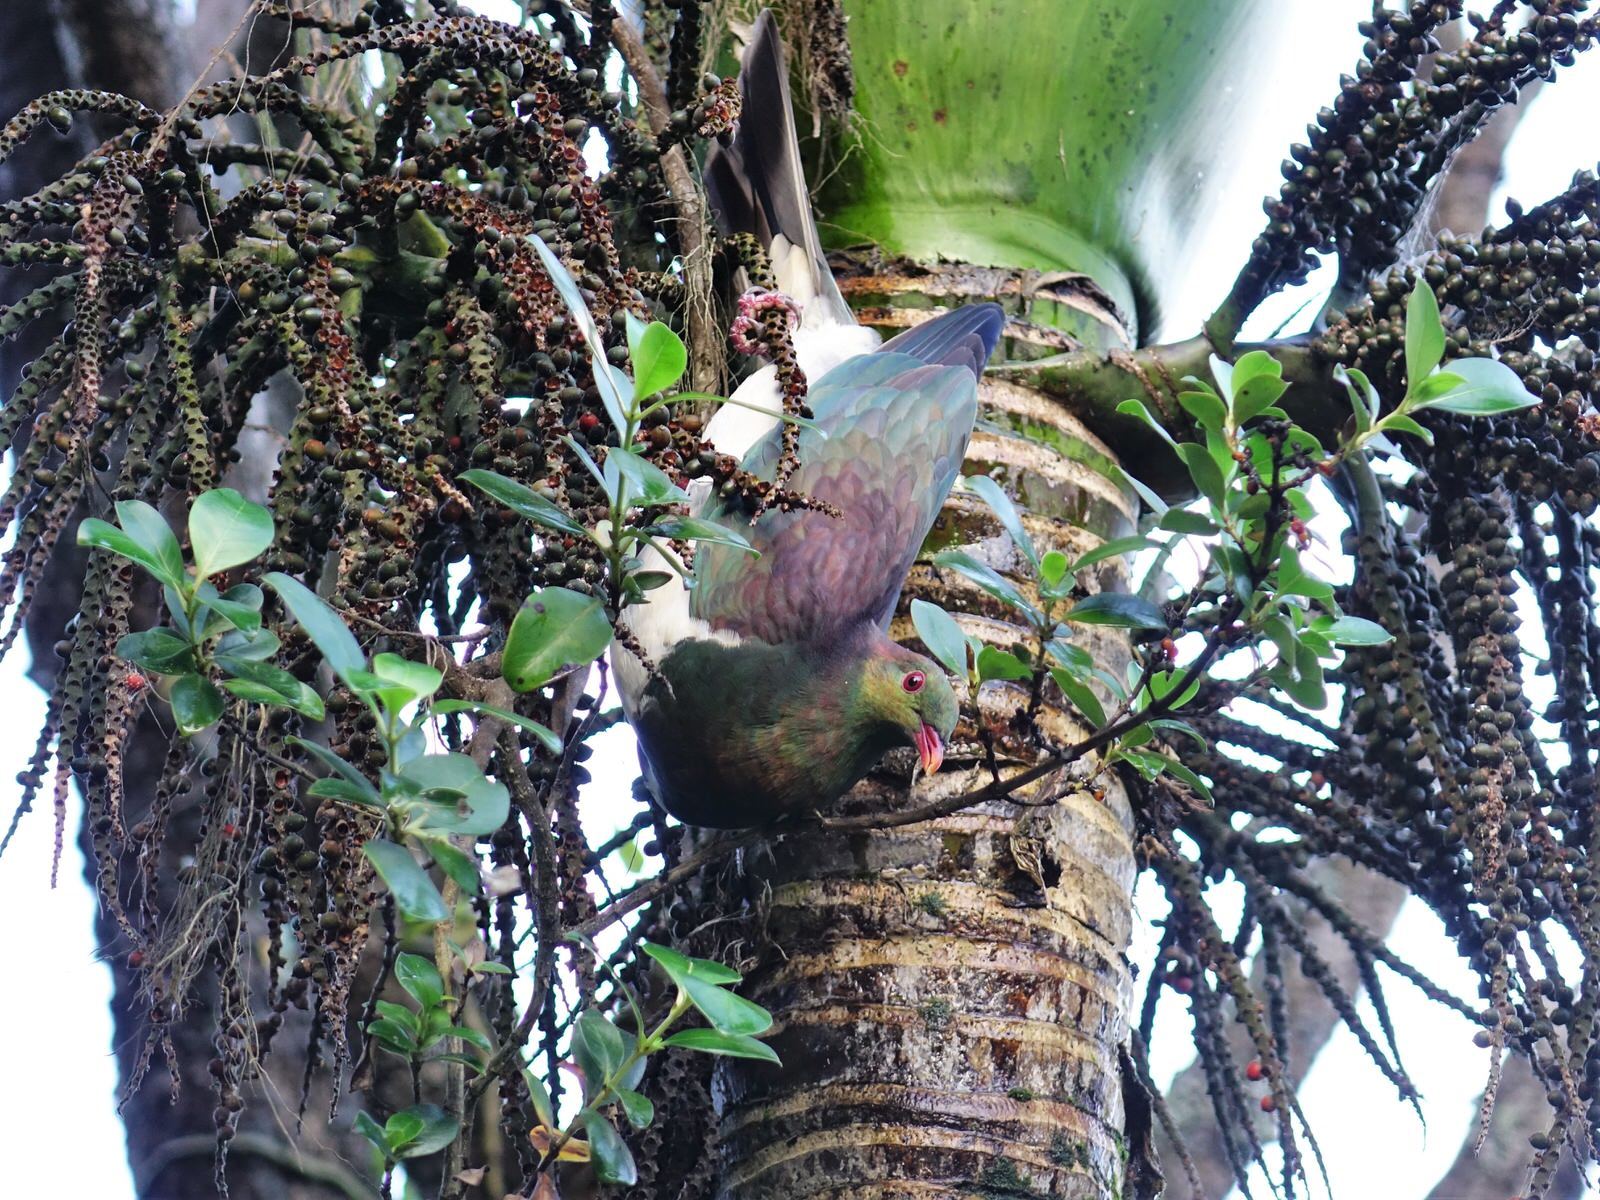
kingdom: Animalia
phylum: Chordata
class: Aves
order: Columbiformes
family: Columbidae
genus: Hemiphaga
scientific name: Hemiphaga novaeseelandiae
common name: New zealand pigeon
